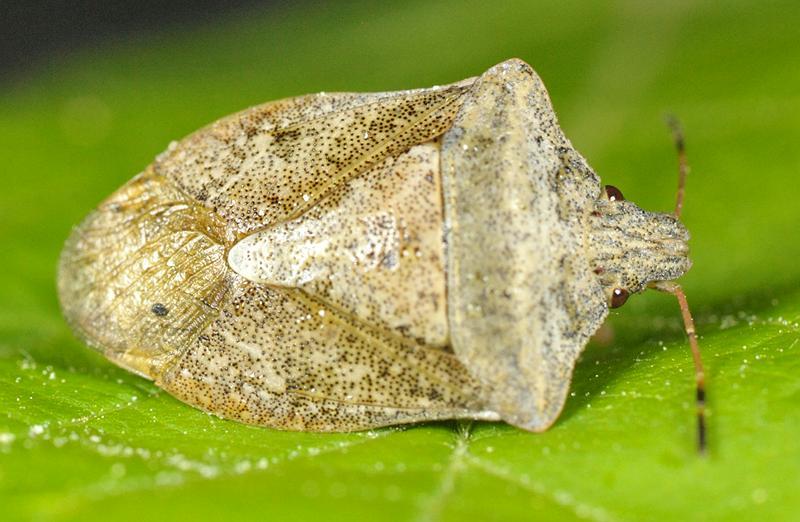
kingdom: Animalia
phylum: Arthropoda
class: Insecta
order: Hemiptera
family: Pentatomidae
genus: Euschistus
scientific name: Euschistus servus
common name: Brown stink bug
